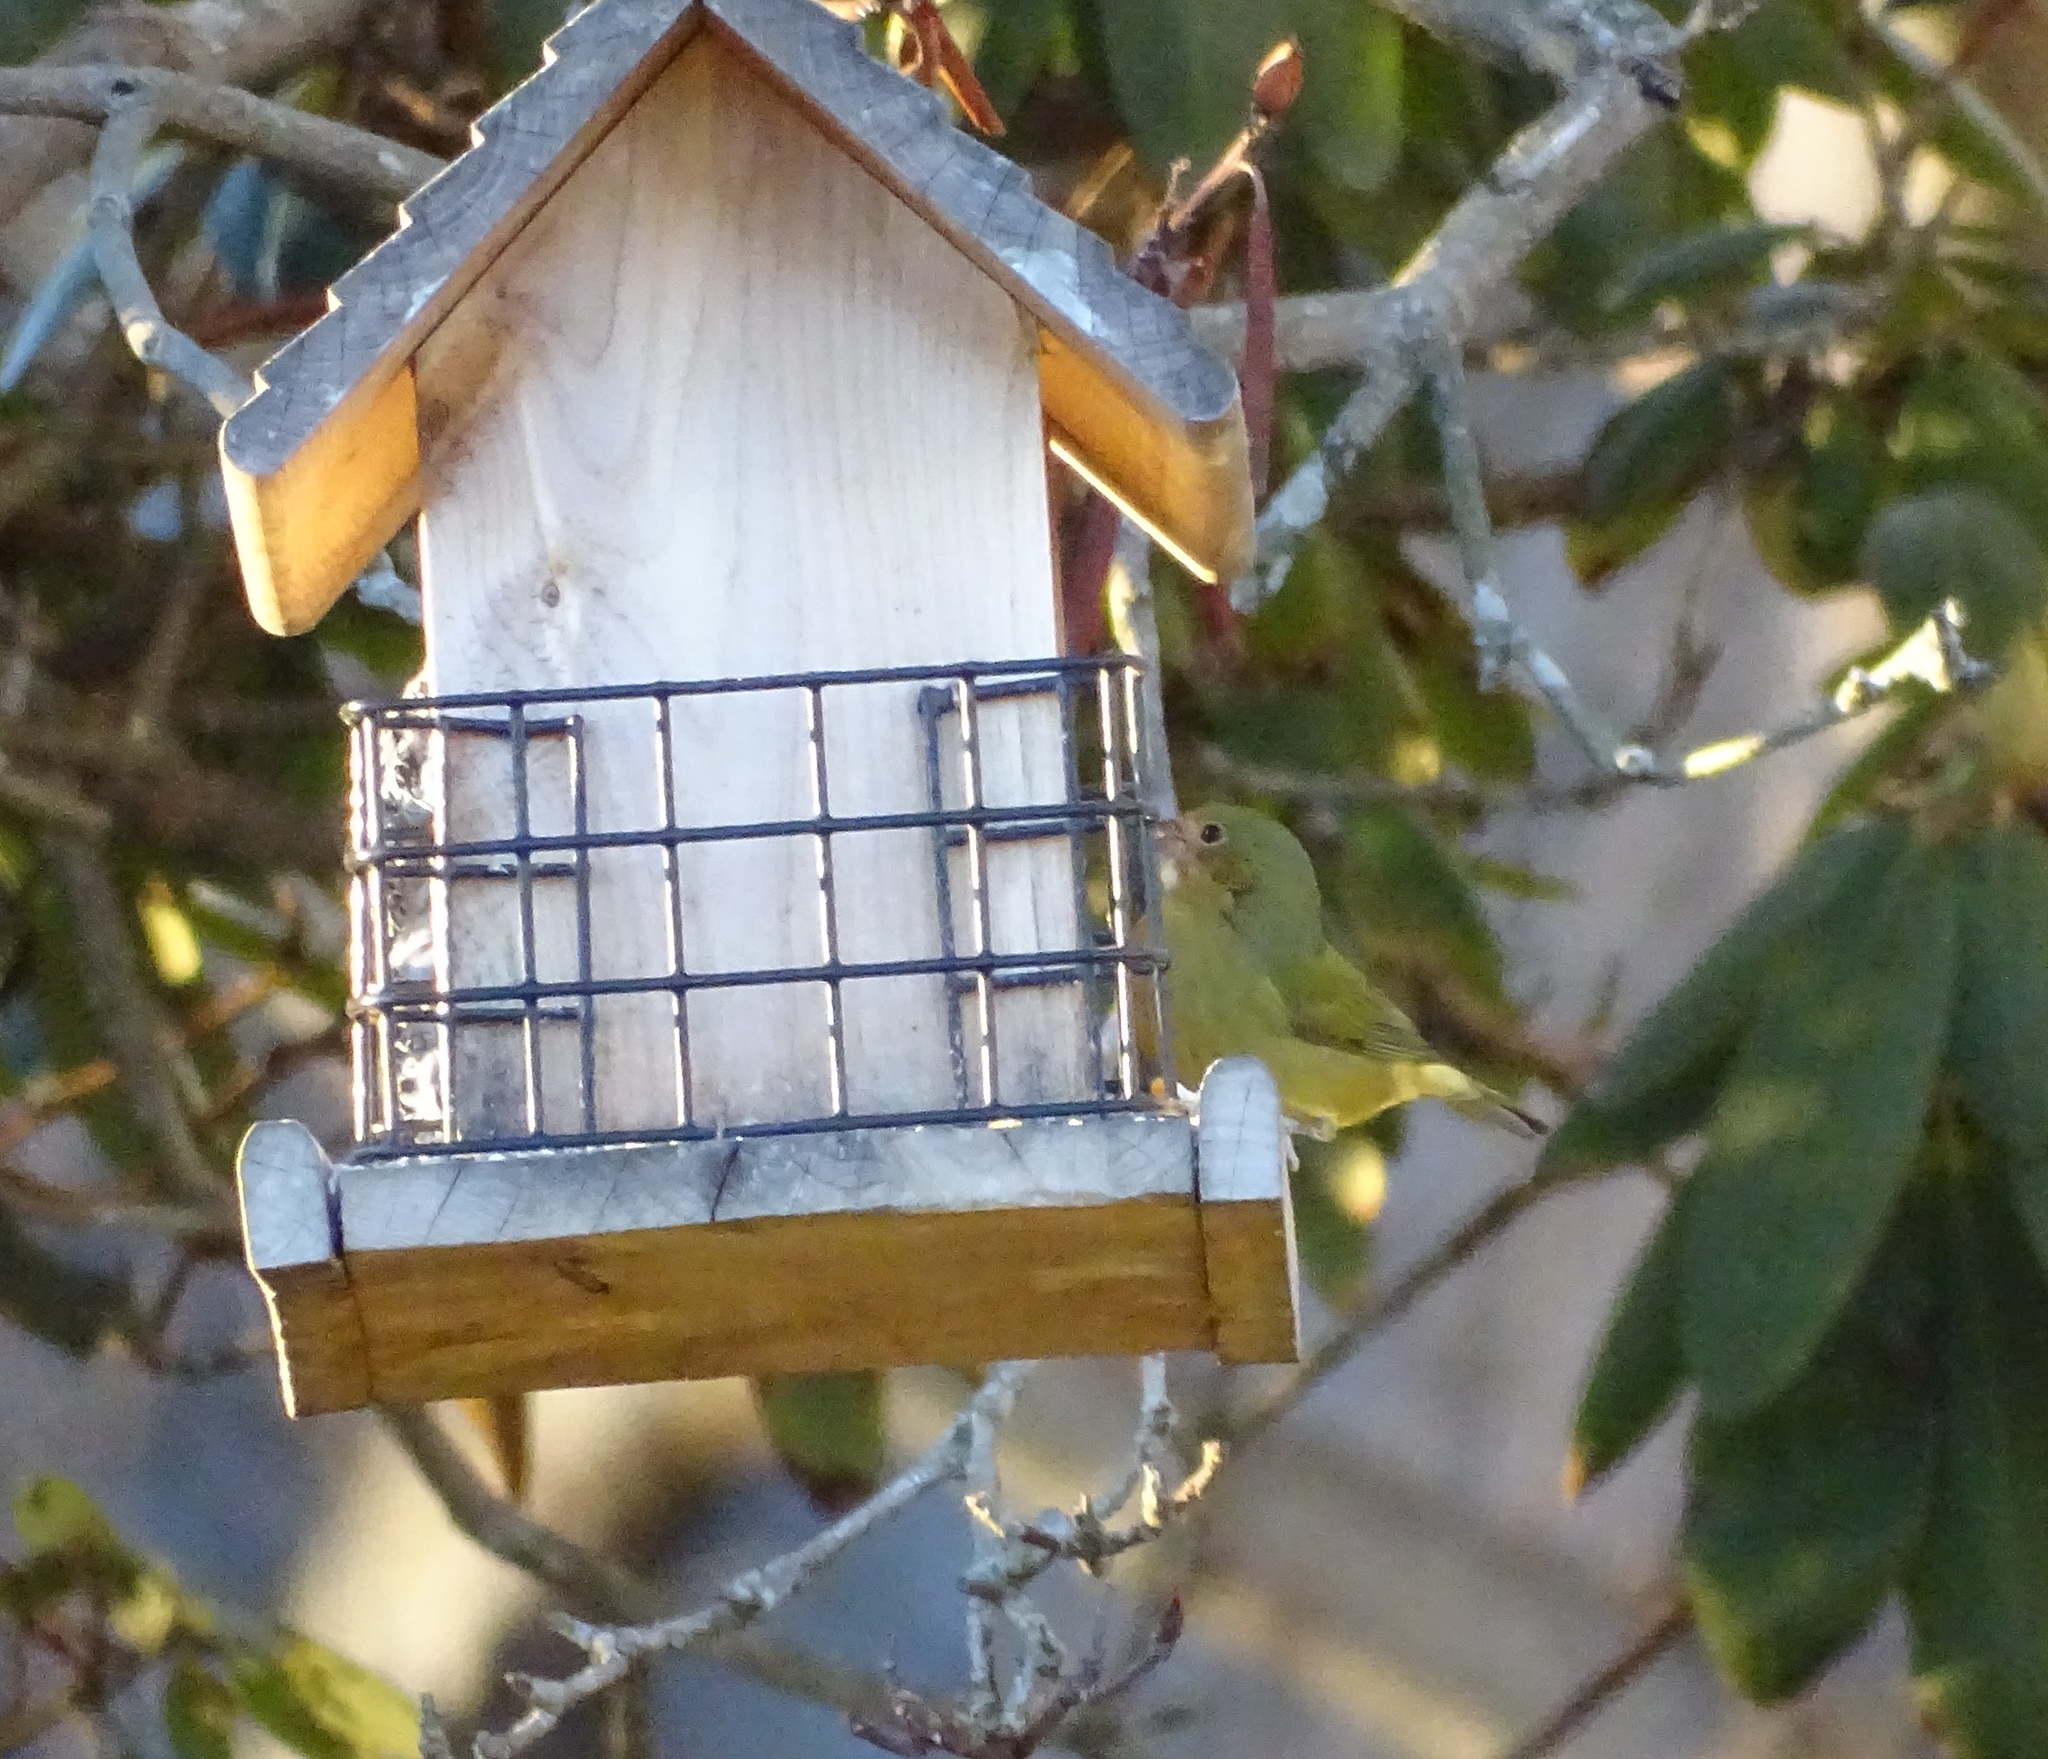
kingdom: Animalia
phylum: Chordata
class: Aves
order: Passeriformes
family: Cardinalidae
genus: Passerina
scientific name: Passerina ciris
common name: Painted bunting
